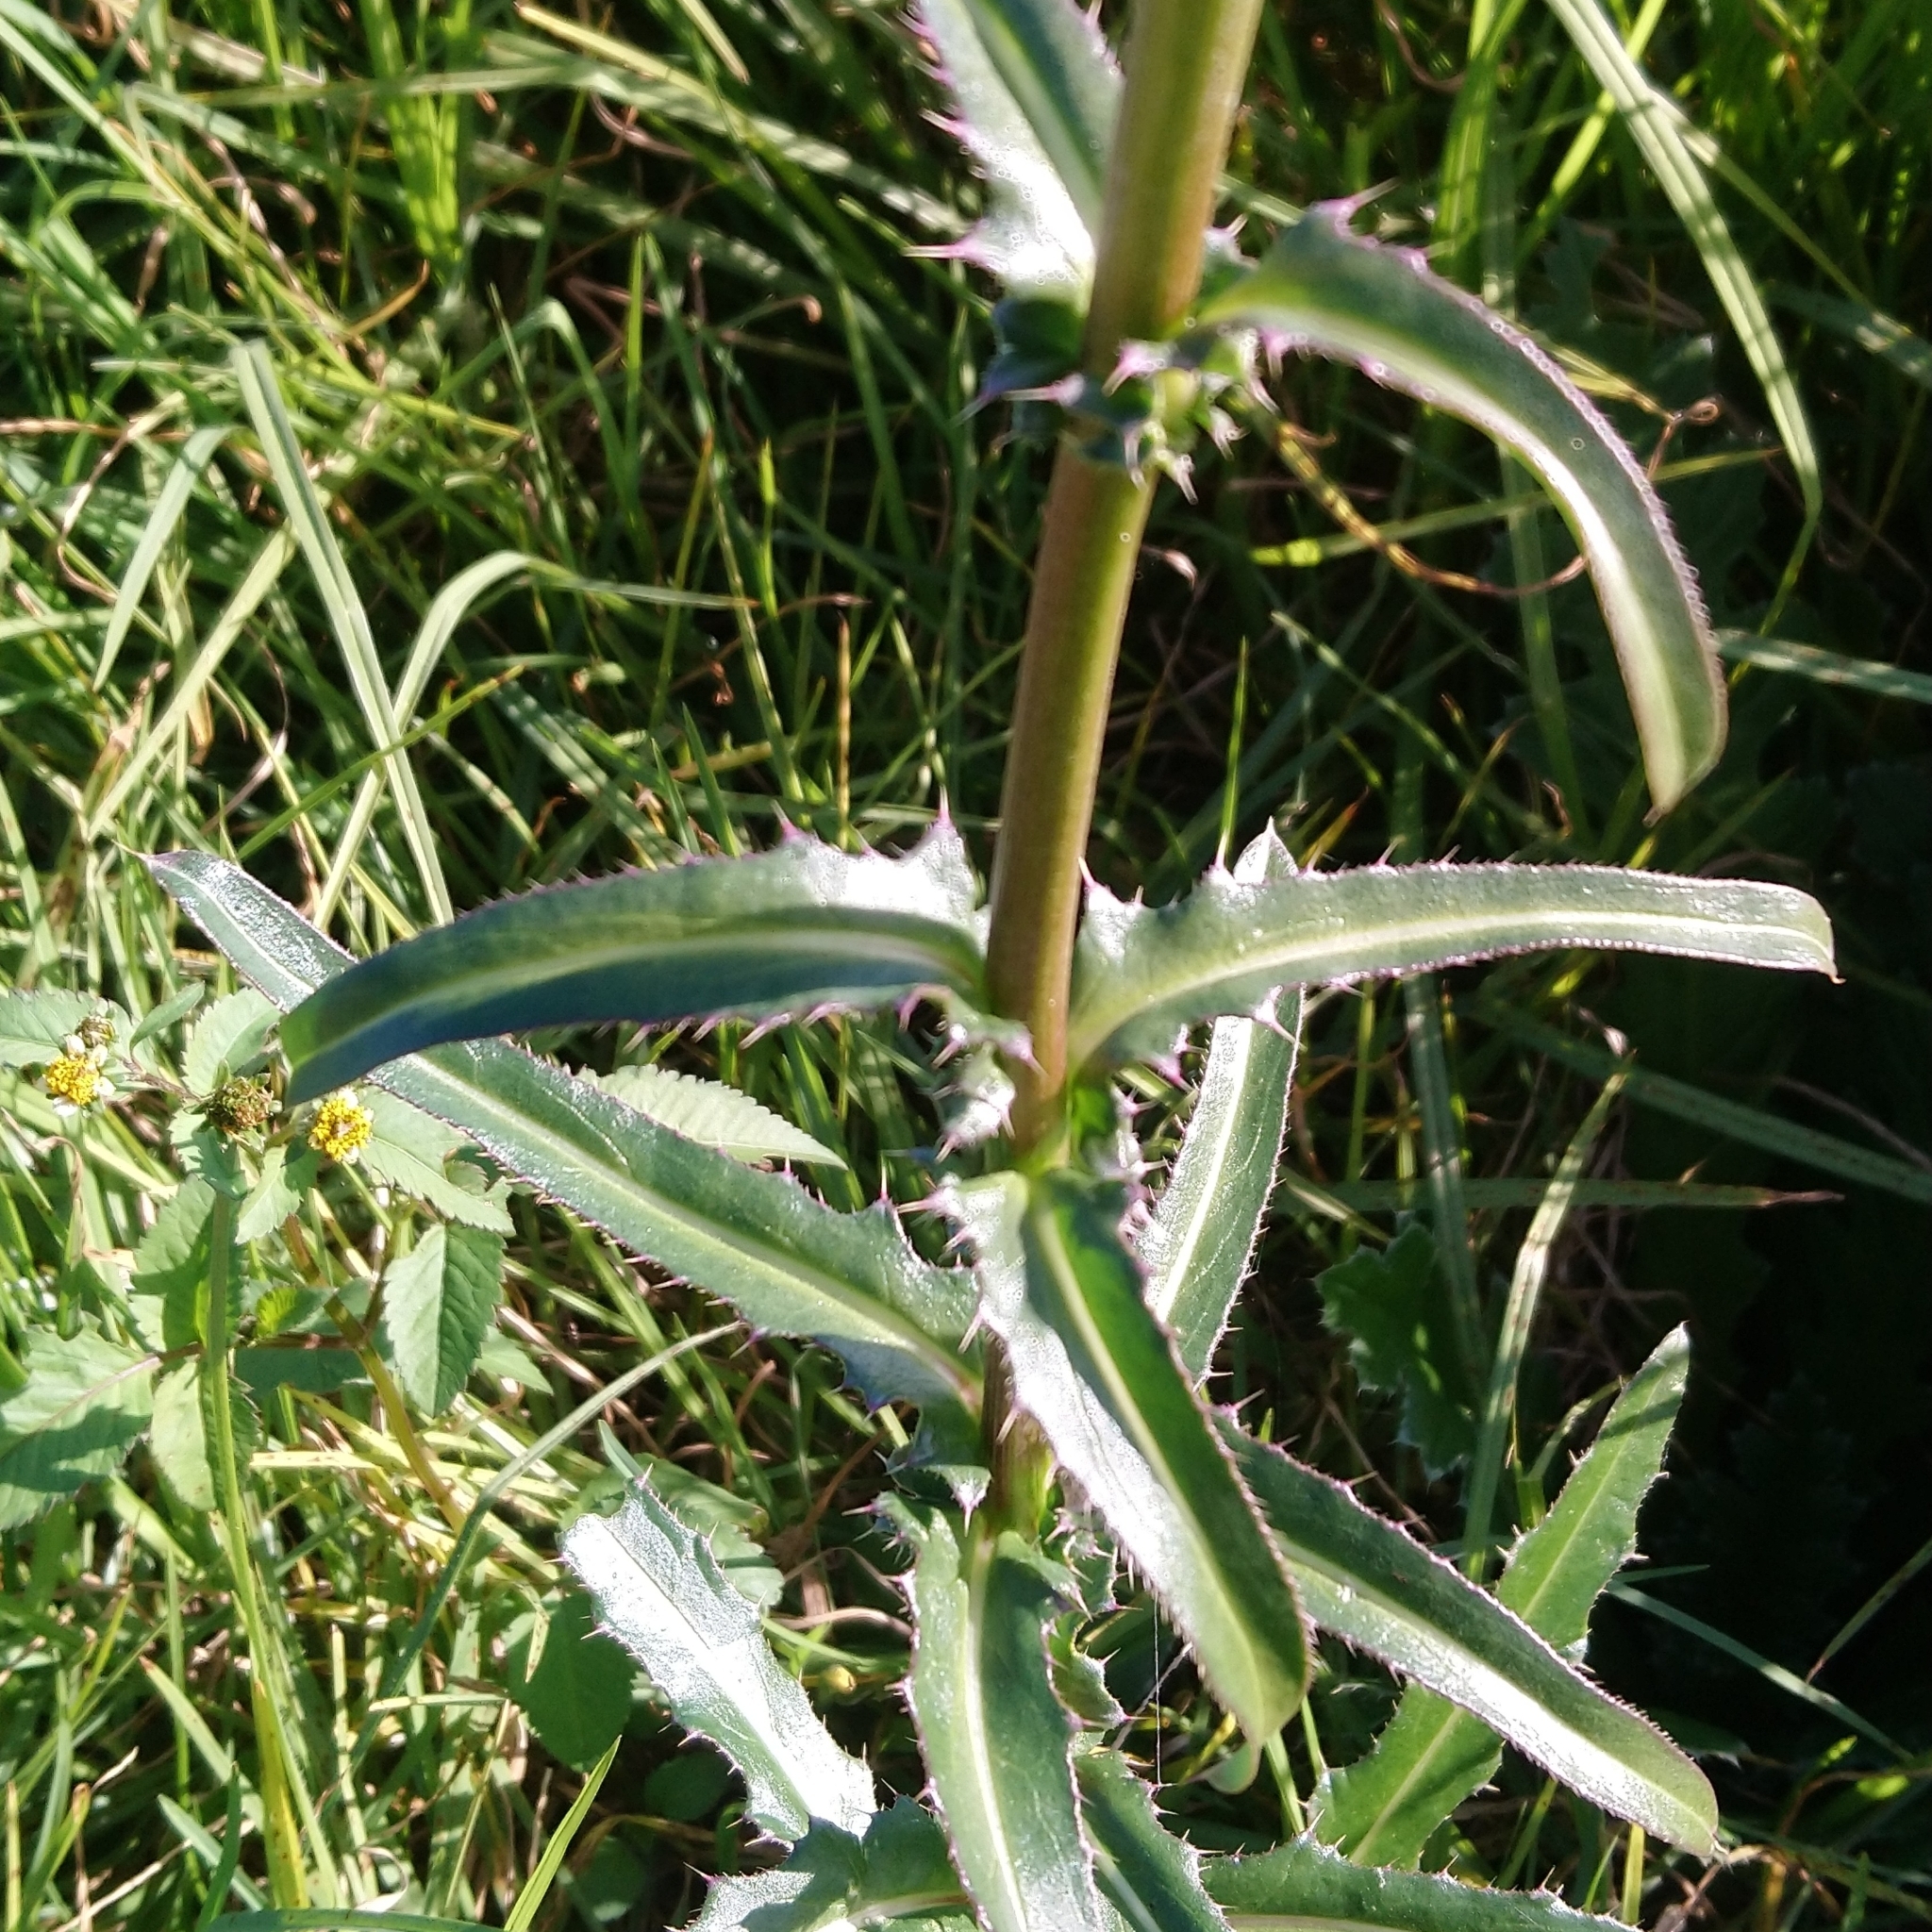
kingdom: Plantae
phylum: Tracheophyta
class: Magnoliopsida
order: Asterales
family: Asteraceae
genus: Carduus
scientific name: Carduus nutans
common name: Musk thistle
